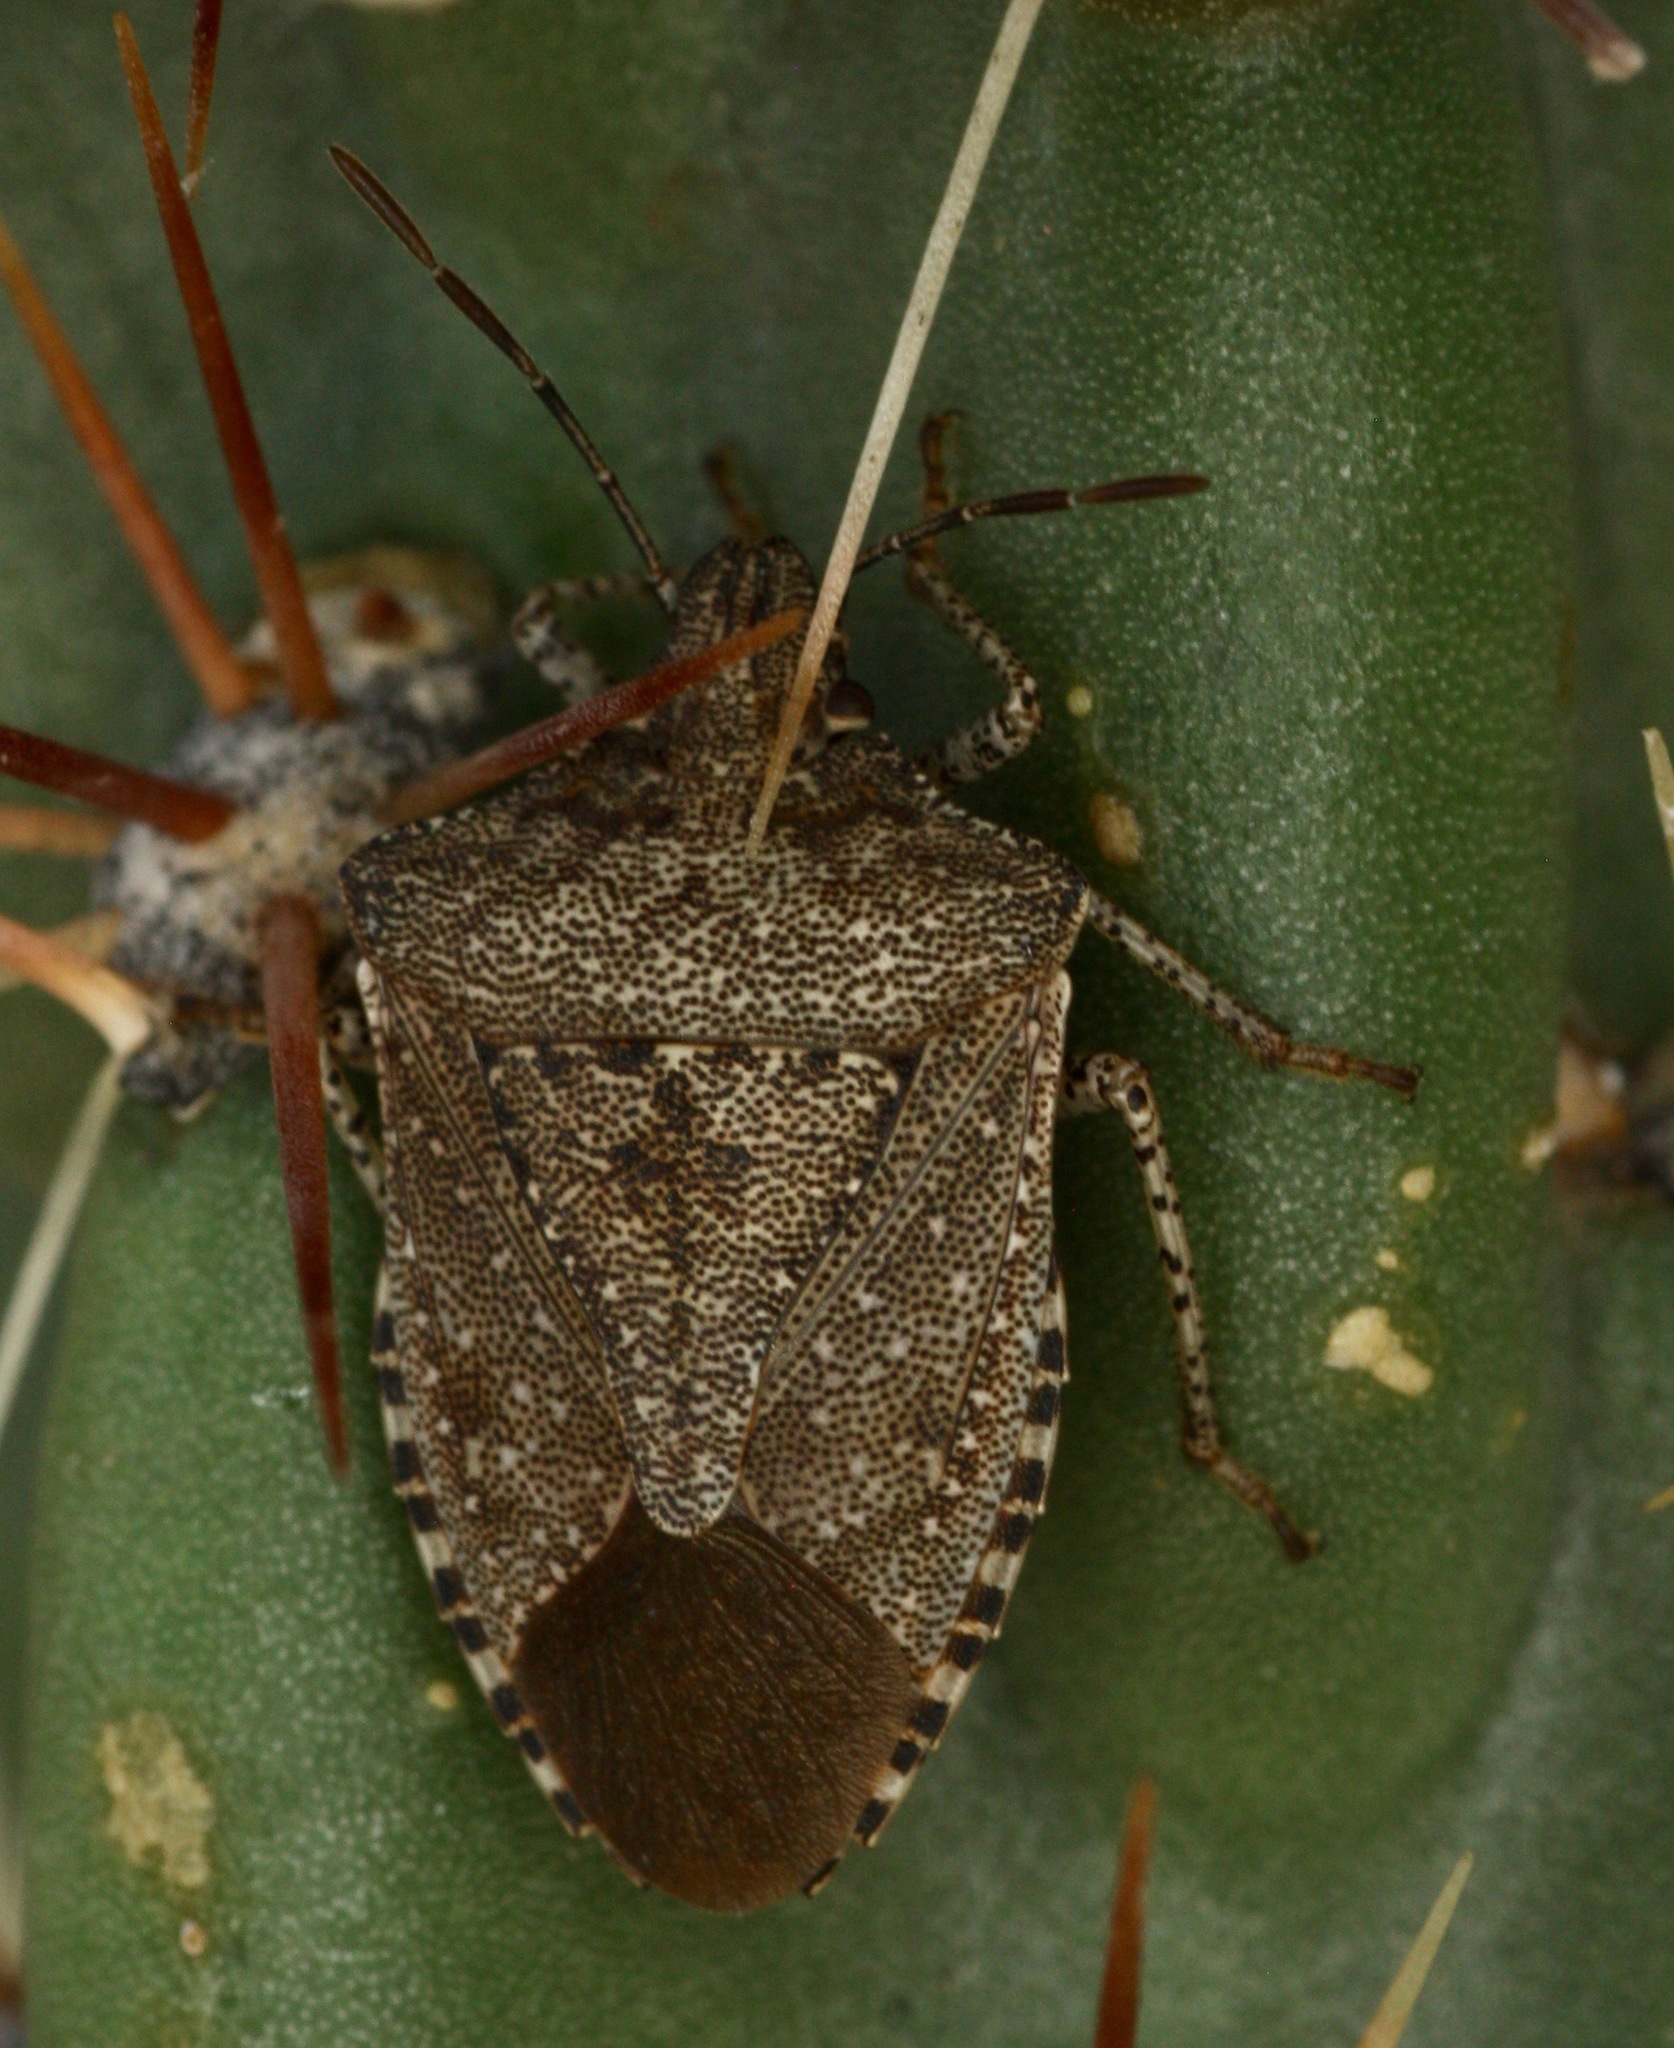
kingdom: Animalia
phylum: Arthropoda
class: Insecta
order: Hemiptera
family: Pentatomidae
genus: Euschistus
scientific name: Euschistus biformis
